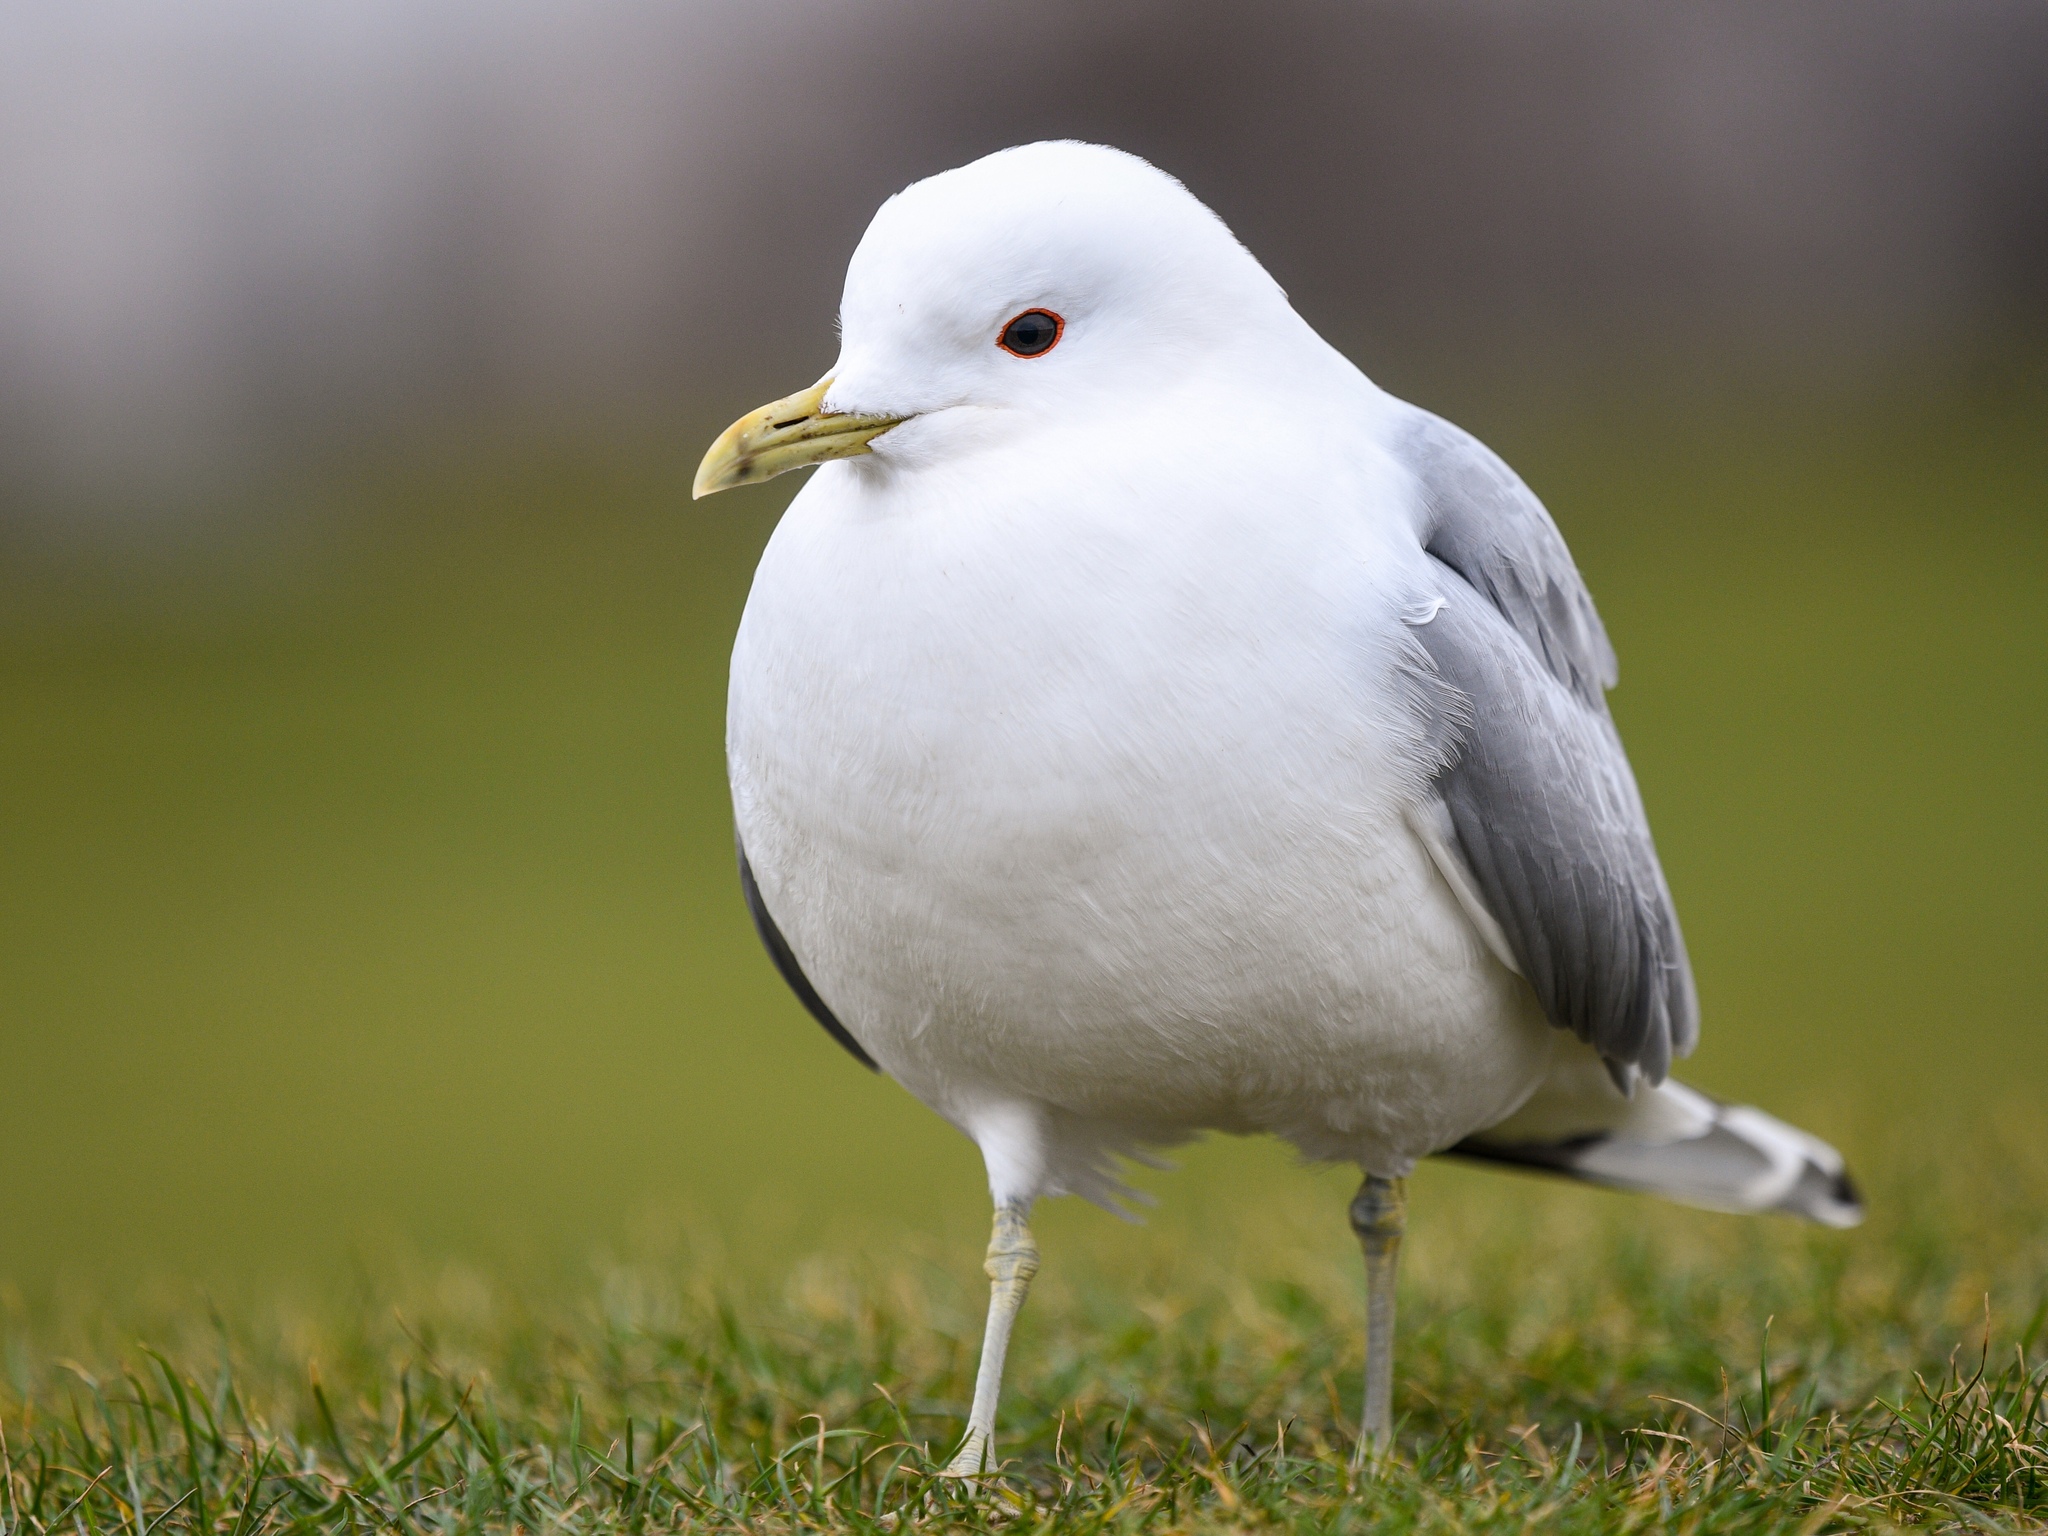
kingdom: Animalia
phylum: Chordata
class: Aves
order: Charadriiformes
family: Laridae
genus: Larus
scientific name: Larus canus
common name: Mew gull
